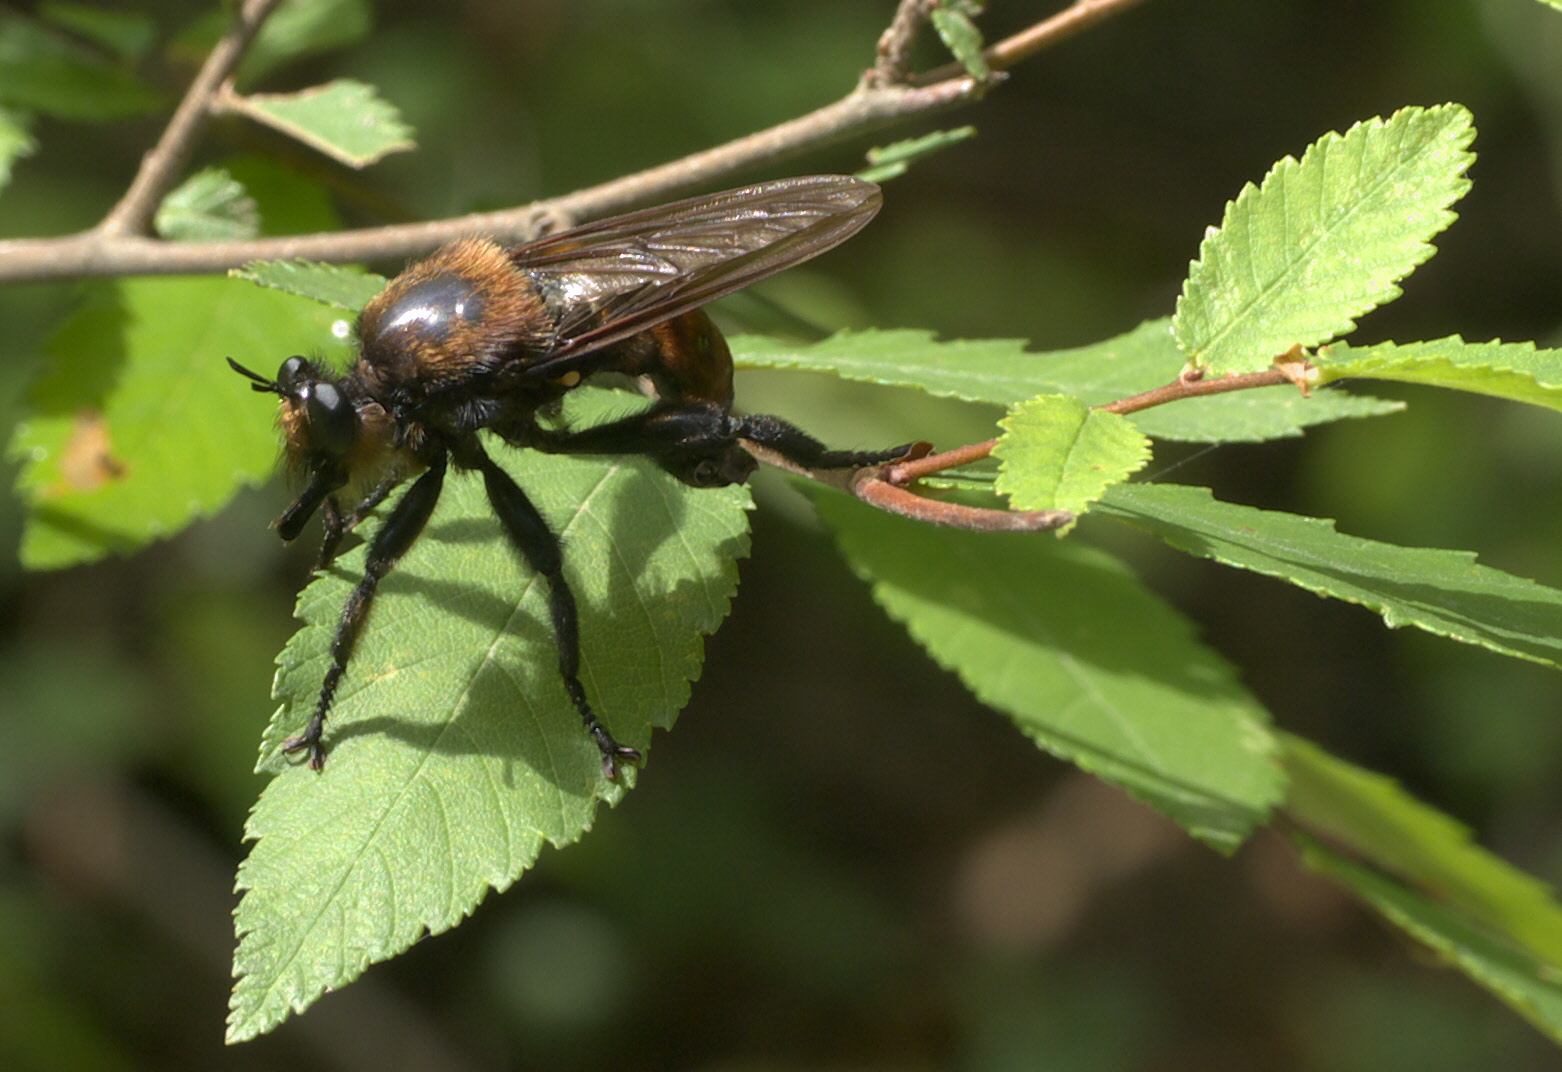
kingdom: Animalia
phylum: Arthropoda
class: Insecta
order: Diptera
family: Asilidae
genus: Laphria
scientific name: Laphria lata
